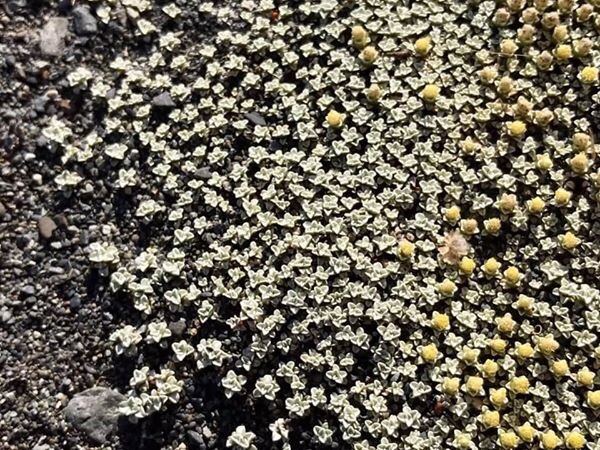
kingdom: Plantae
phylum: Tracheophyta
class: Magnoliopsida
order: Asterales
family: Asteraceae
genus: Raoulia
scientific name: Raoulia australis
